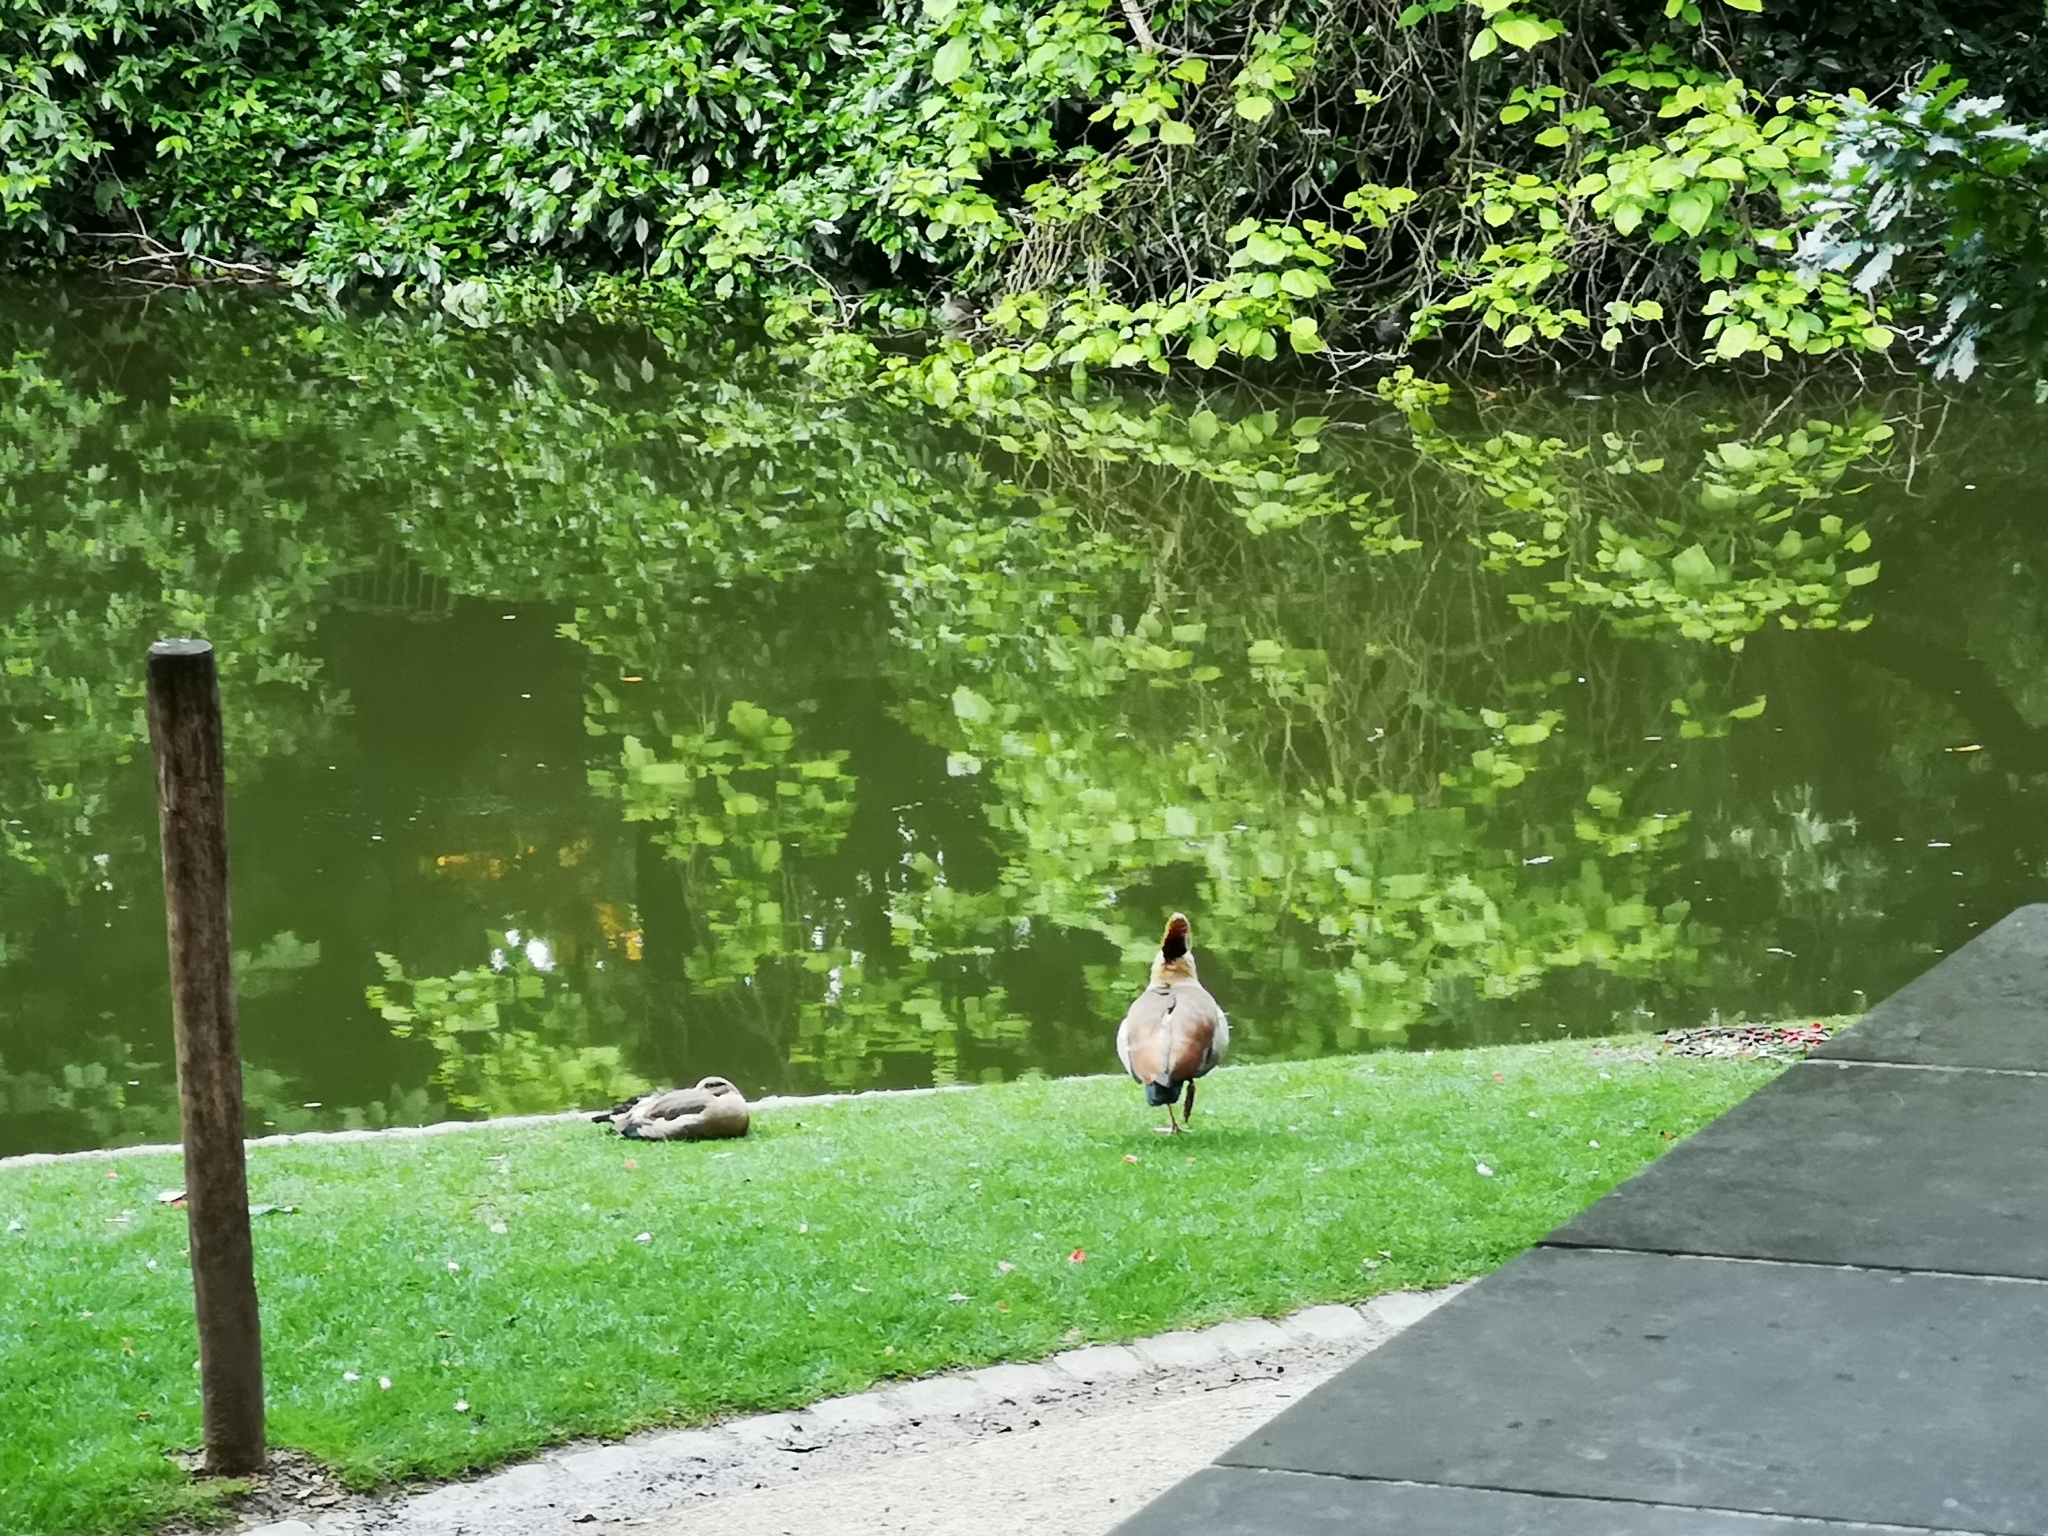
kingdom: Animalia
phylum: Chordata
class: Aves
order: Anseriformes
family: Anatidae
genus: Alopochen
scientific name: Alopochen aegyptiaca
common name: Egyptian goose
